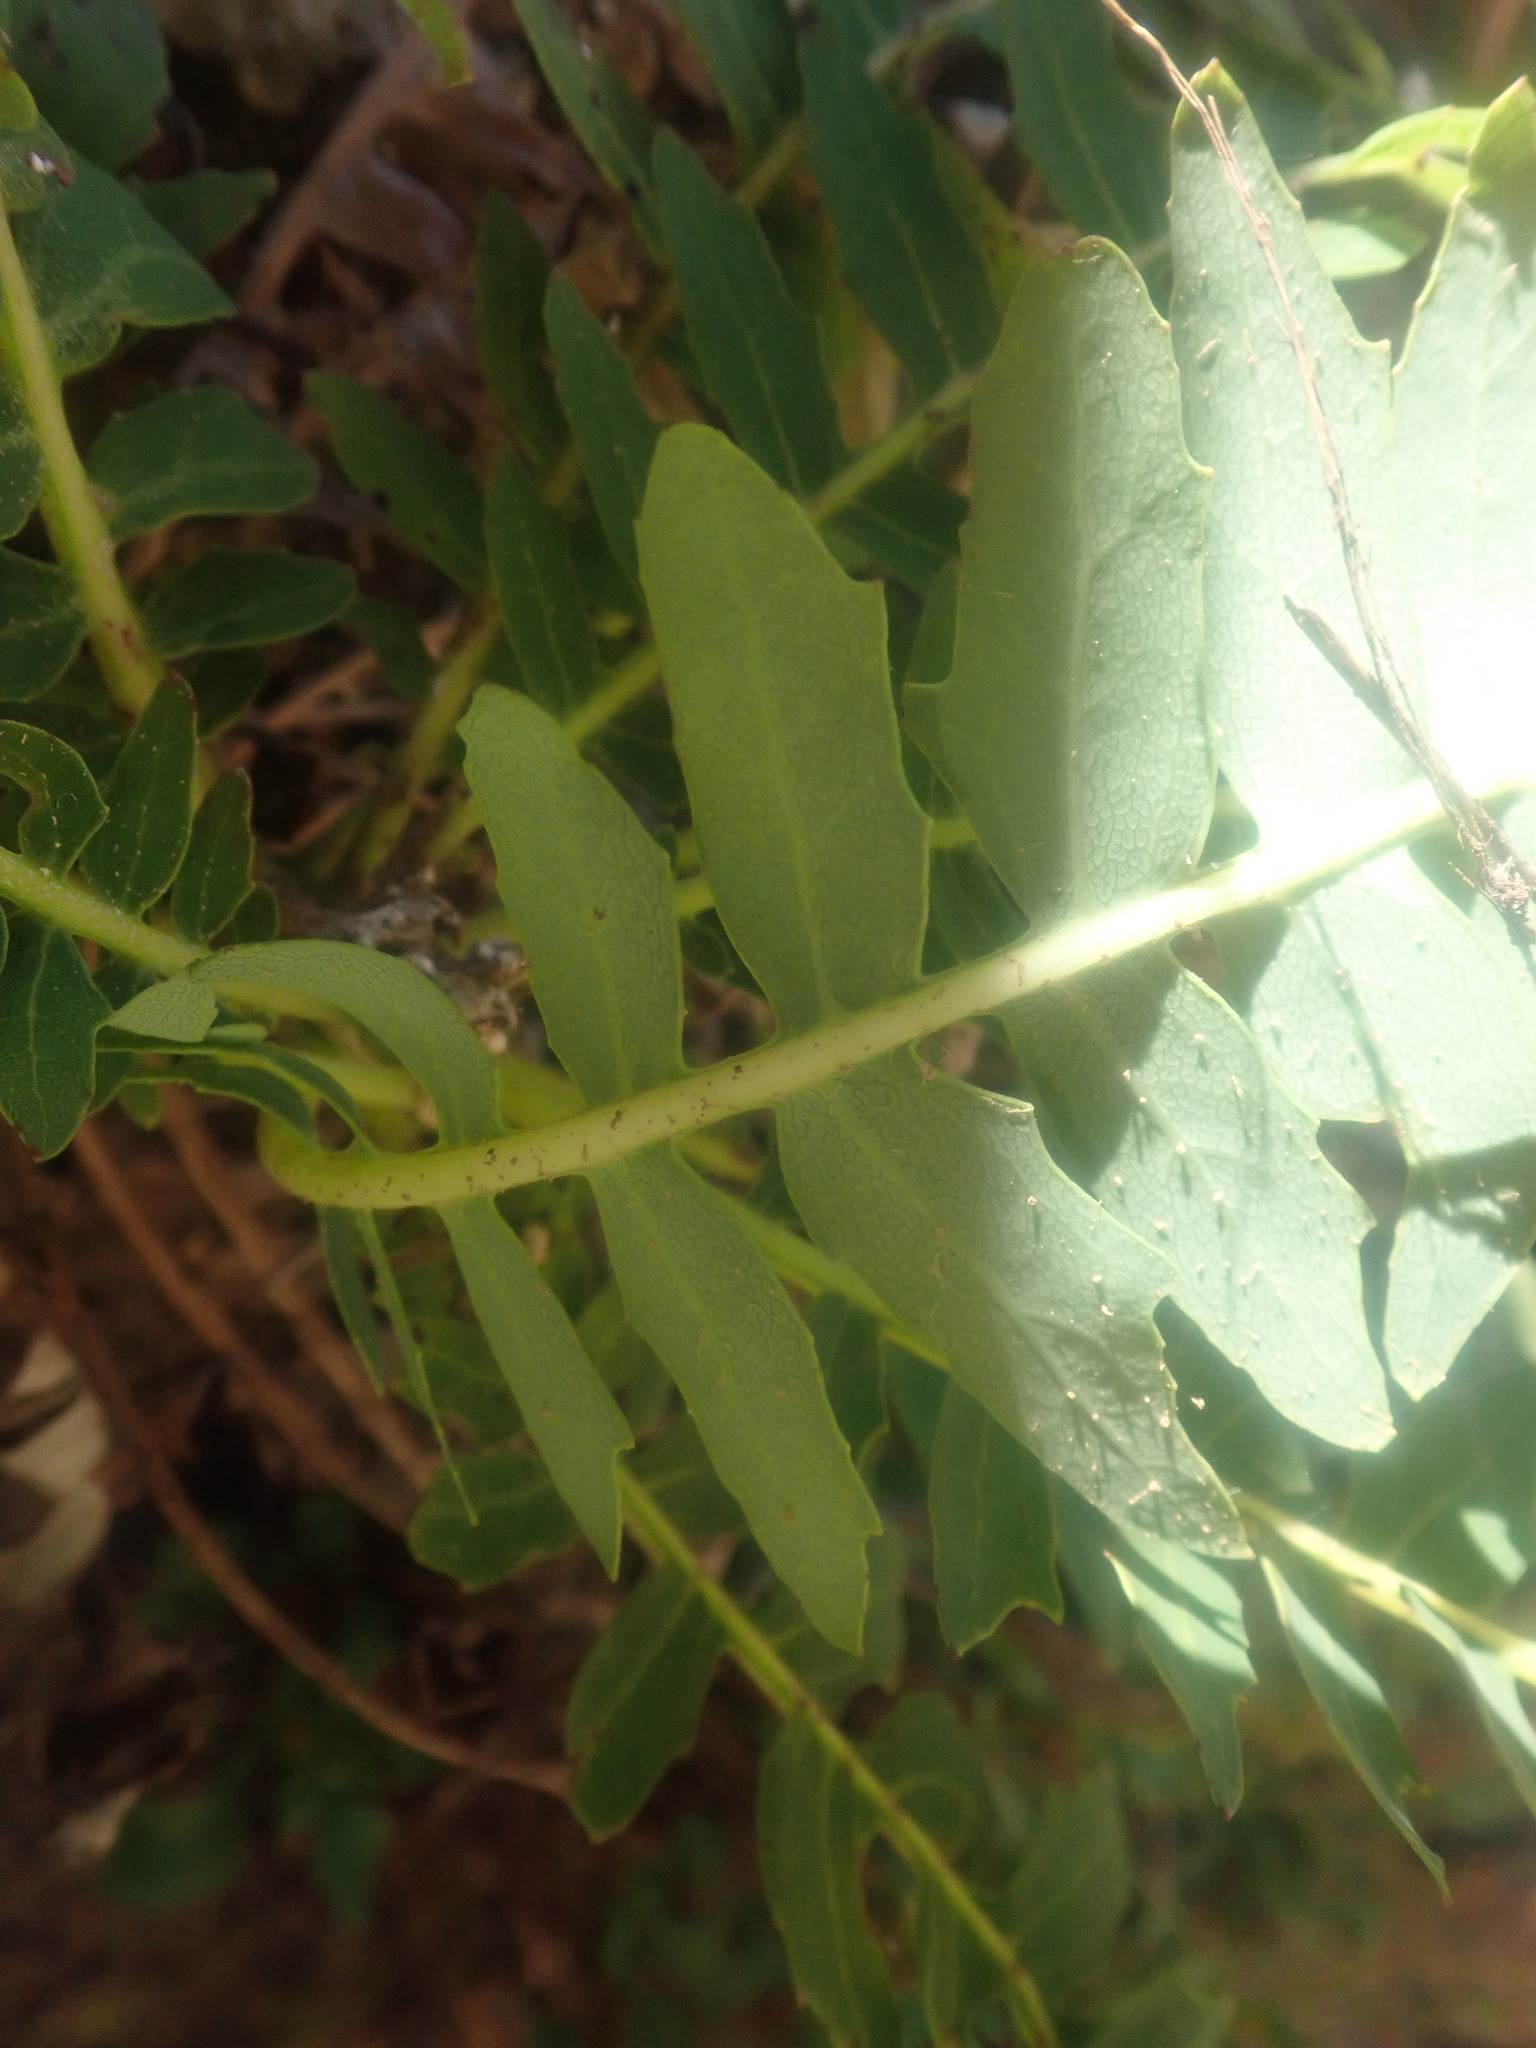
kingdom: Plantae
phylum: Tracheophyta
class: Magnoliopsida
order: Asterales
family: Asteraceae
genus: Sonchus
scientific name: Sonchus pinnatus
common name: Wing-leaved sow-thistle
